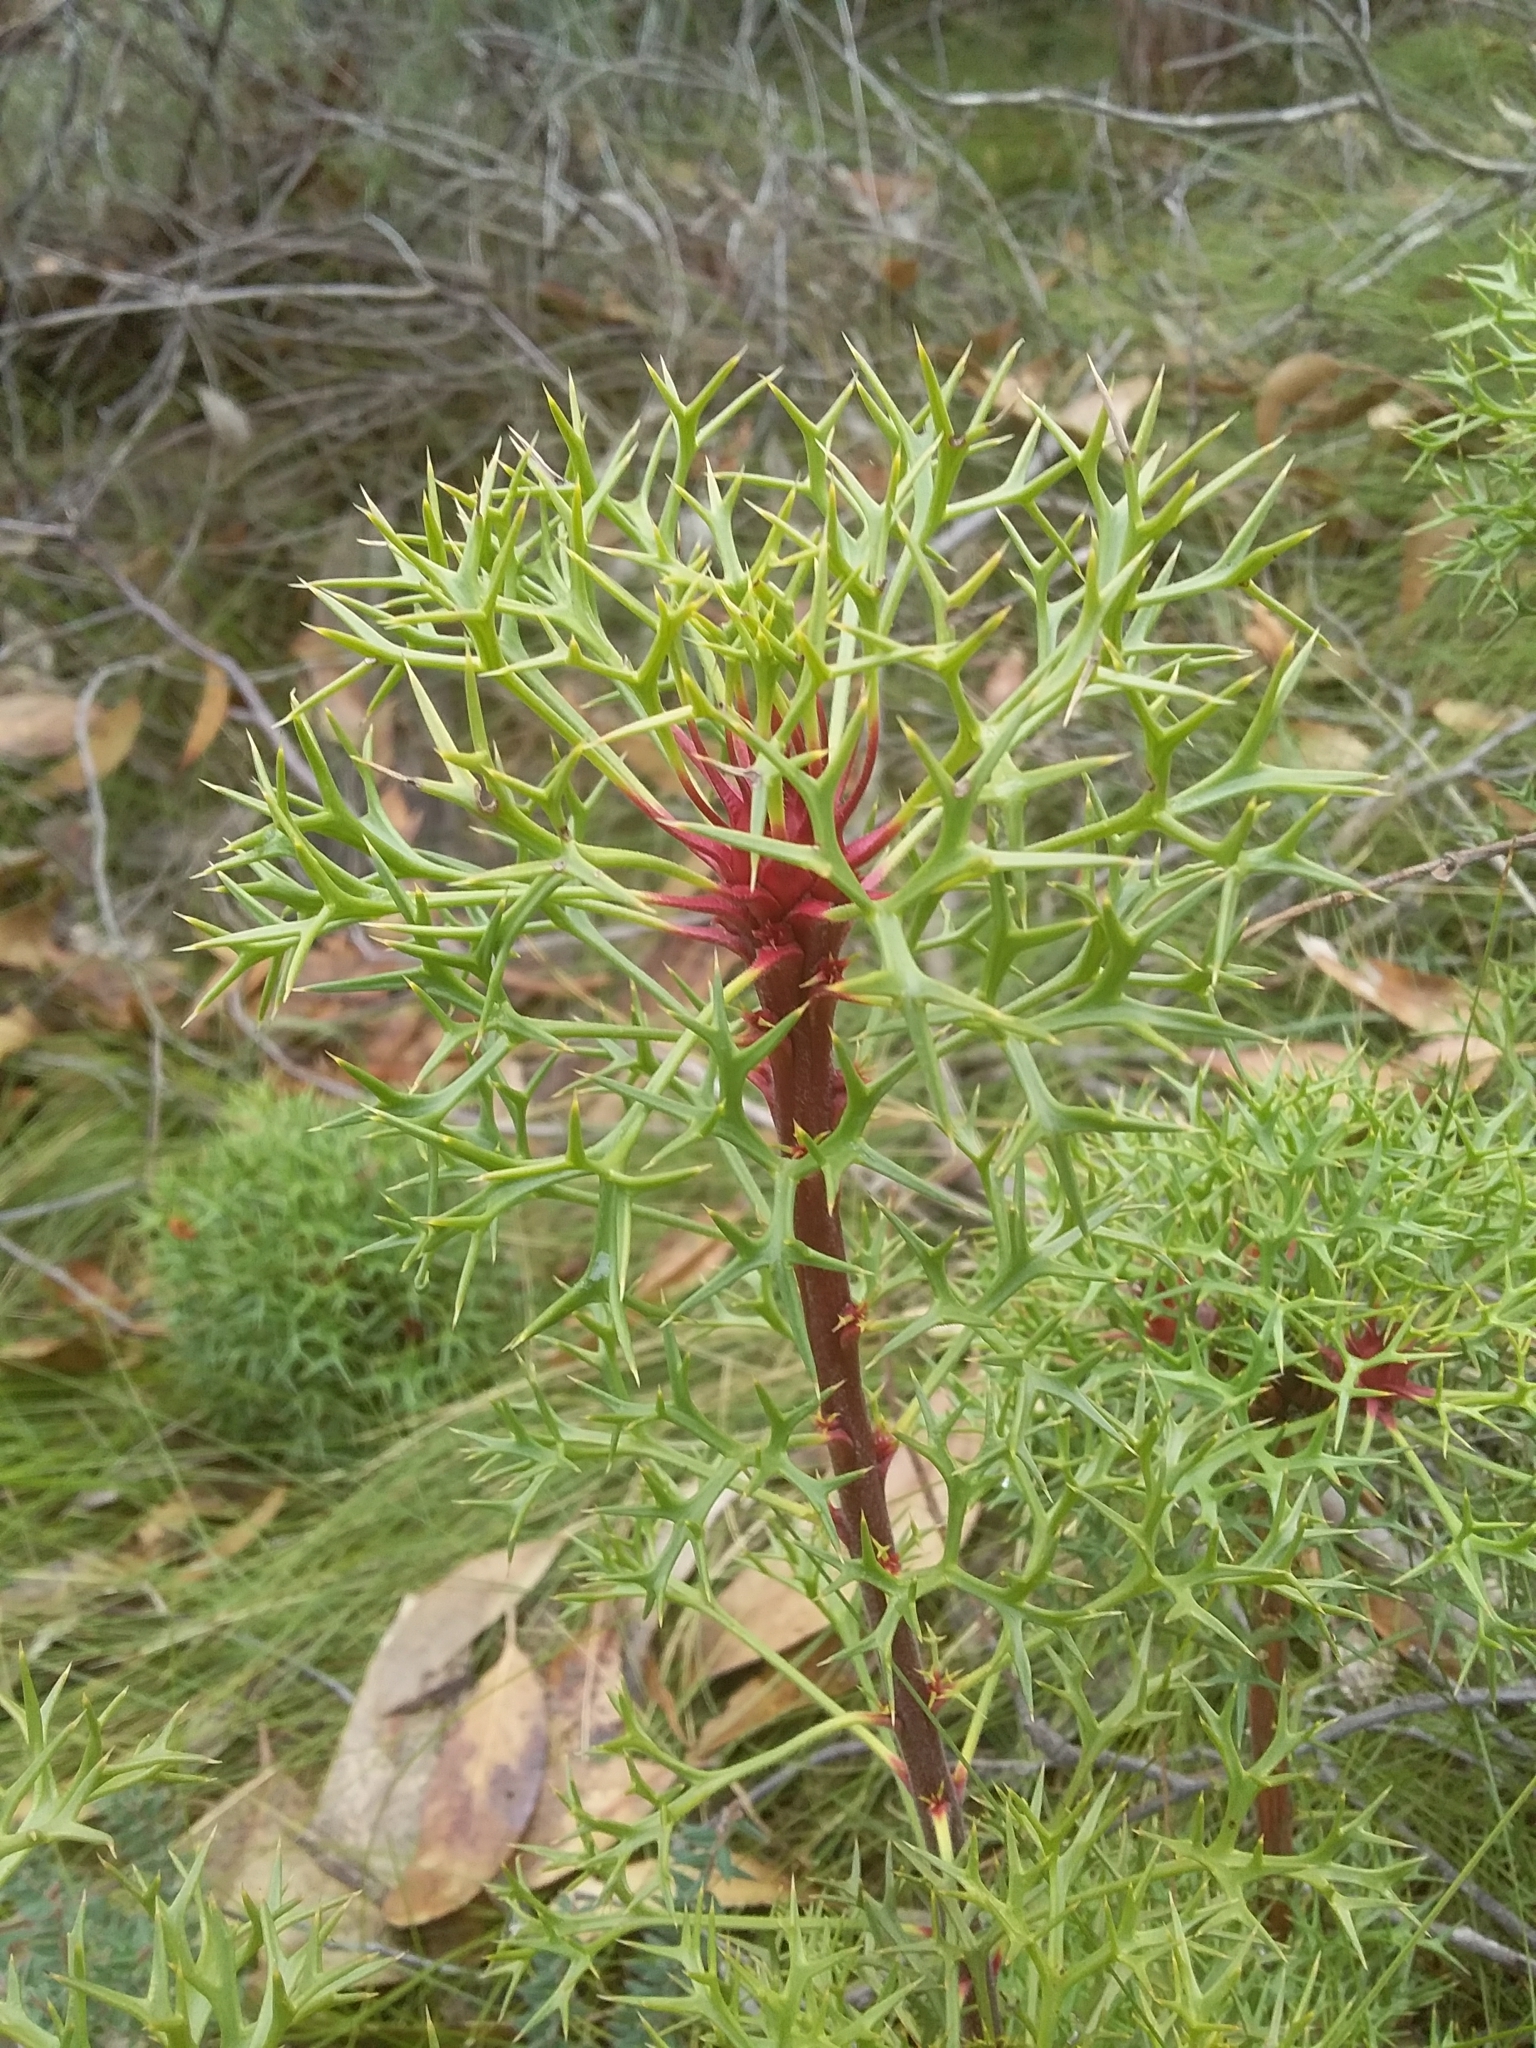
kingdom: Plantae
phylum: Tracheophyta
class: Magnoliopsida
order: Proteales
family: Proteaceae
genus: Isopogon
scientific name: Isopogon ceratophyllus
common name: Horny cone-bush
